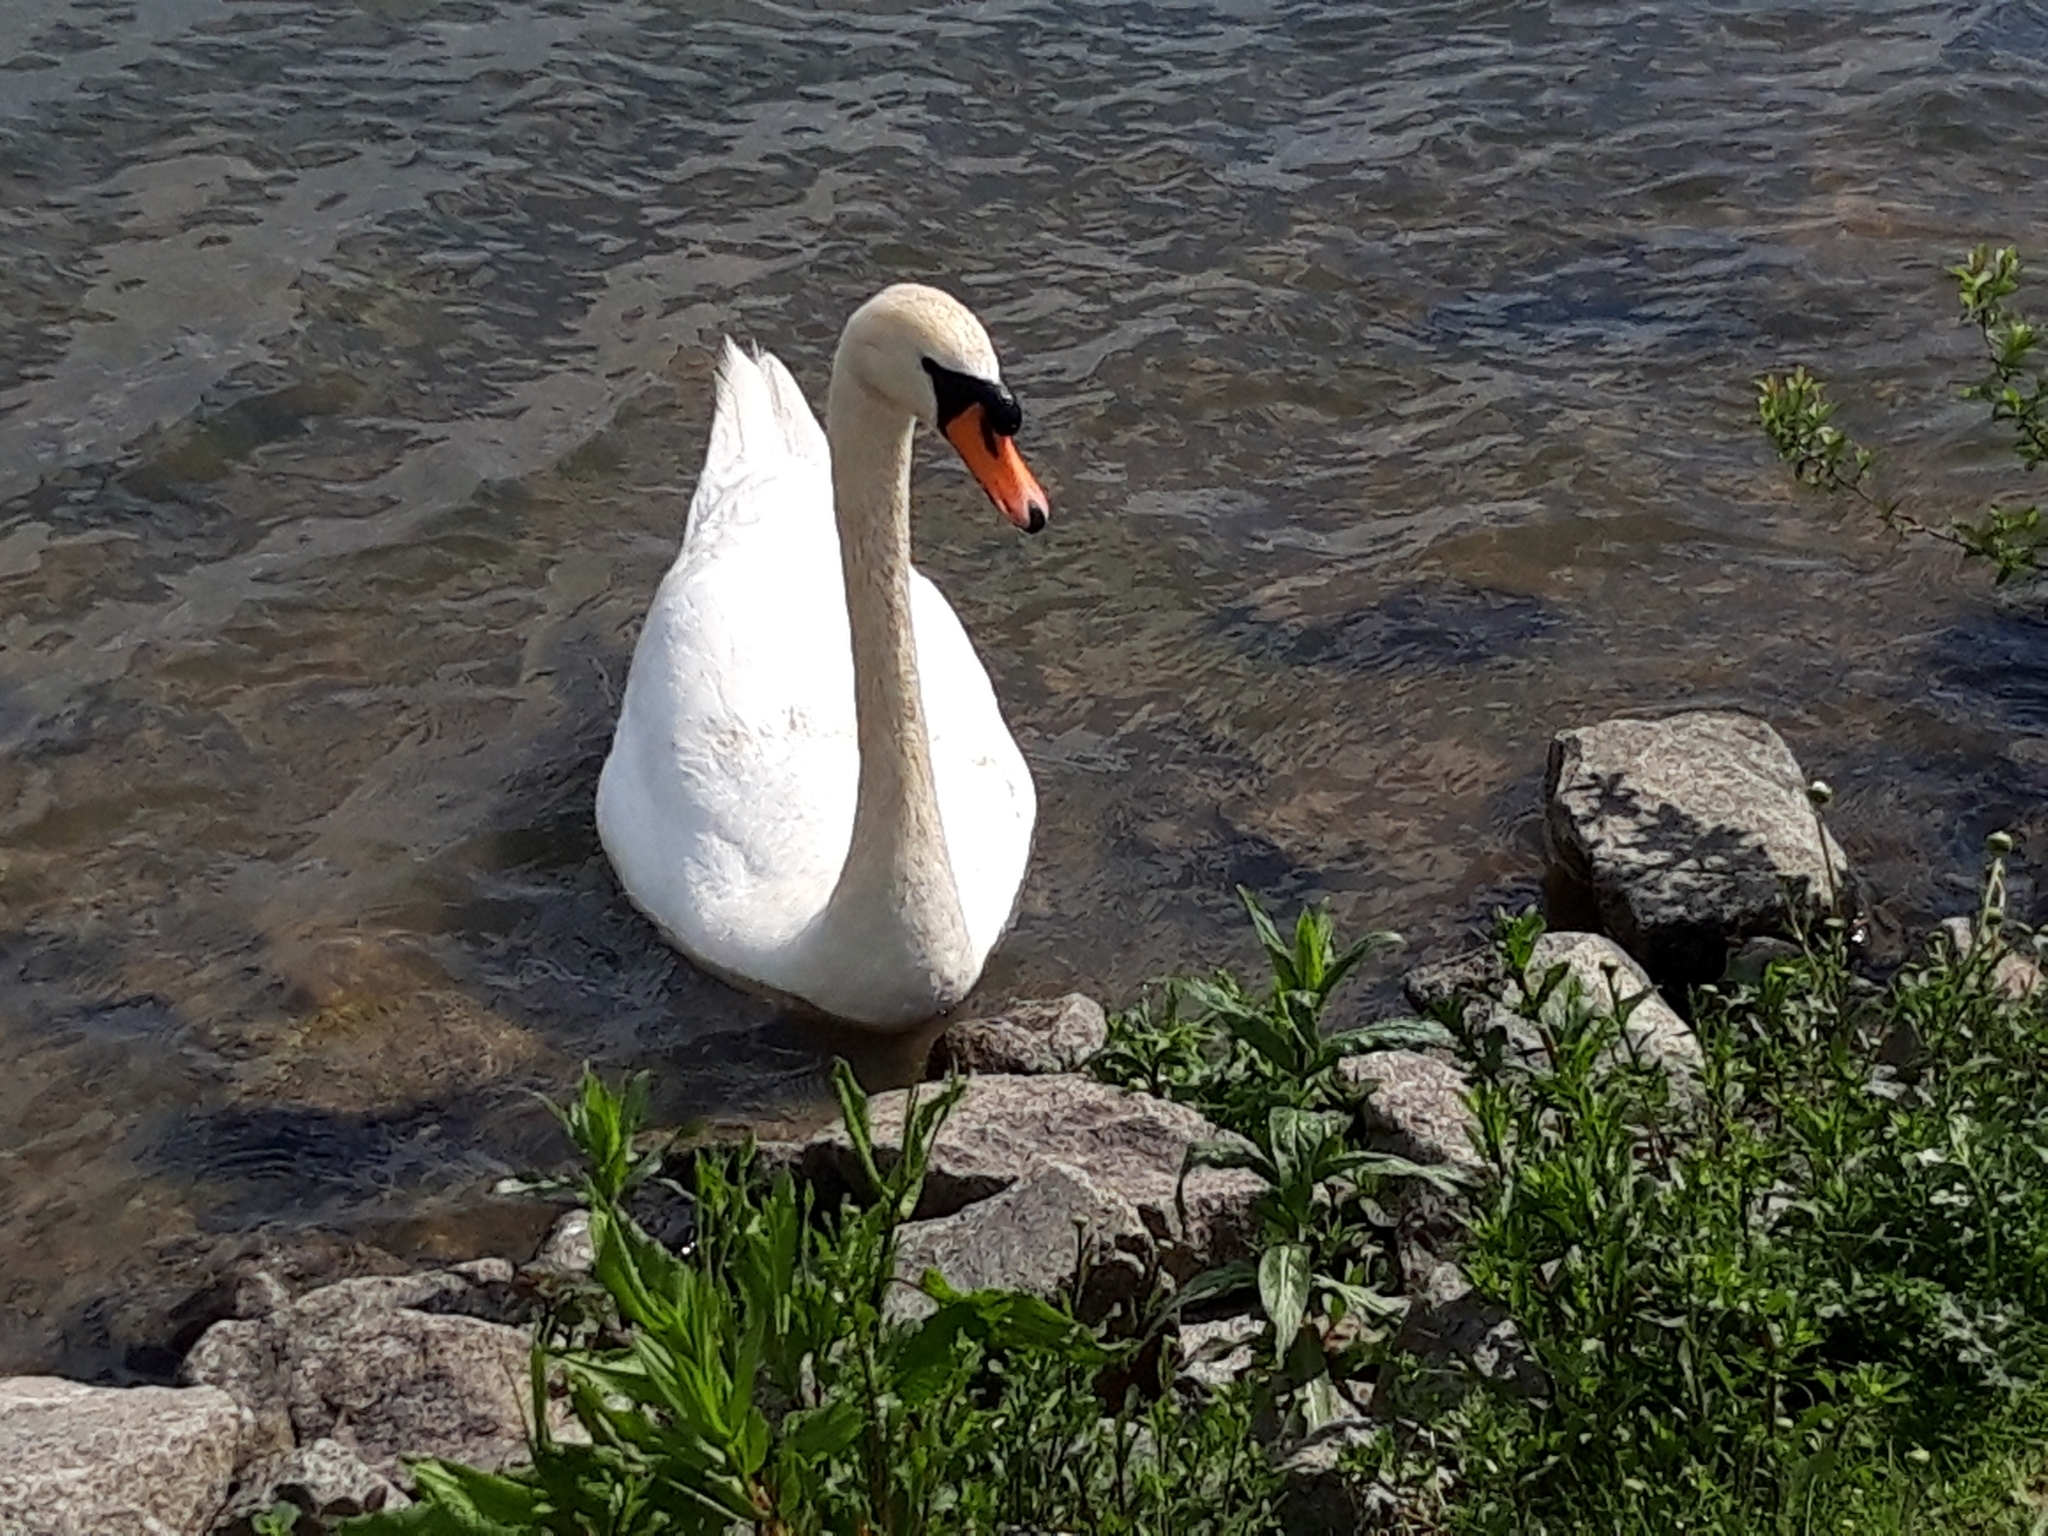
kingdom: Animalia
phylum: Chordata
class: Aves
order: Anseriformes
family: Anatidae
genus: Cygnus
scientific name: Cygnus olor
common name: Mute swan
